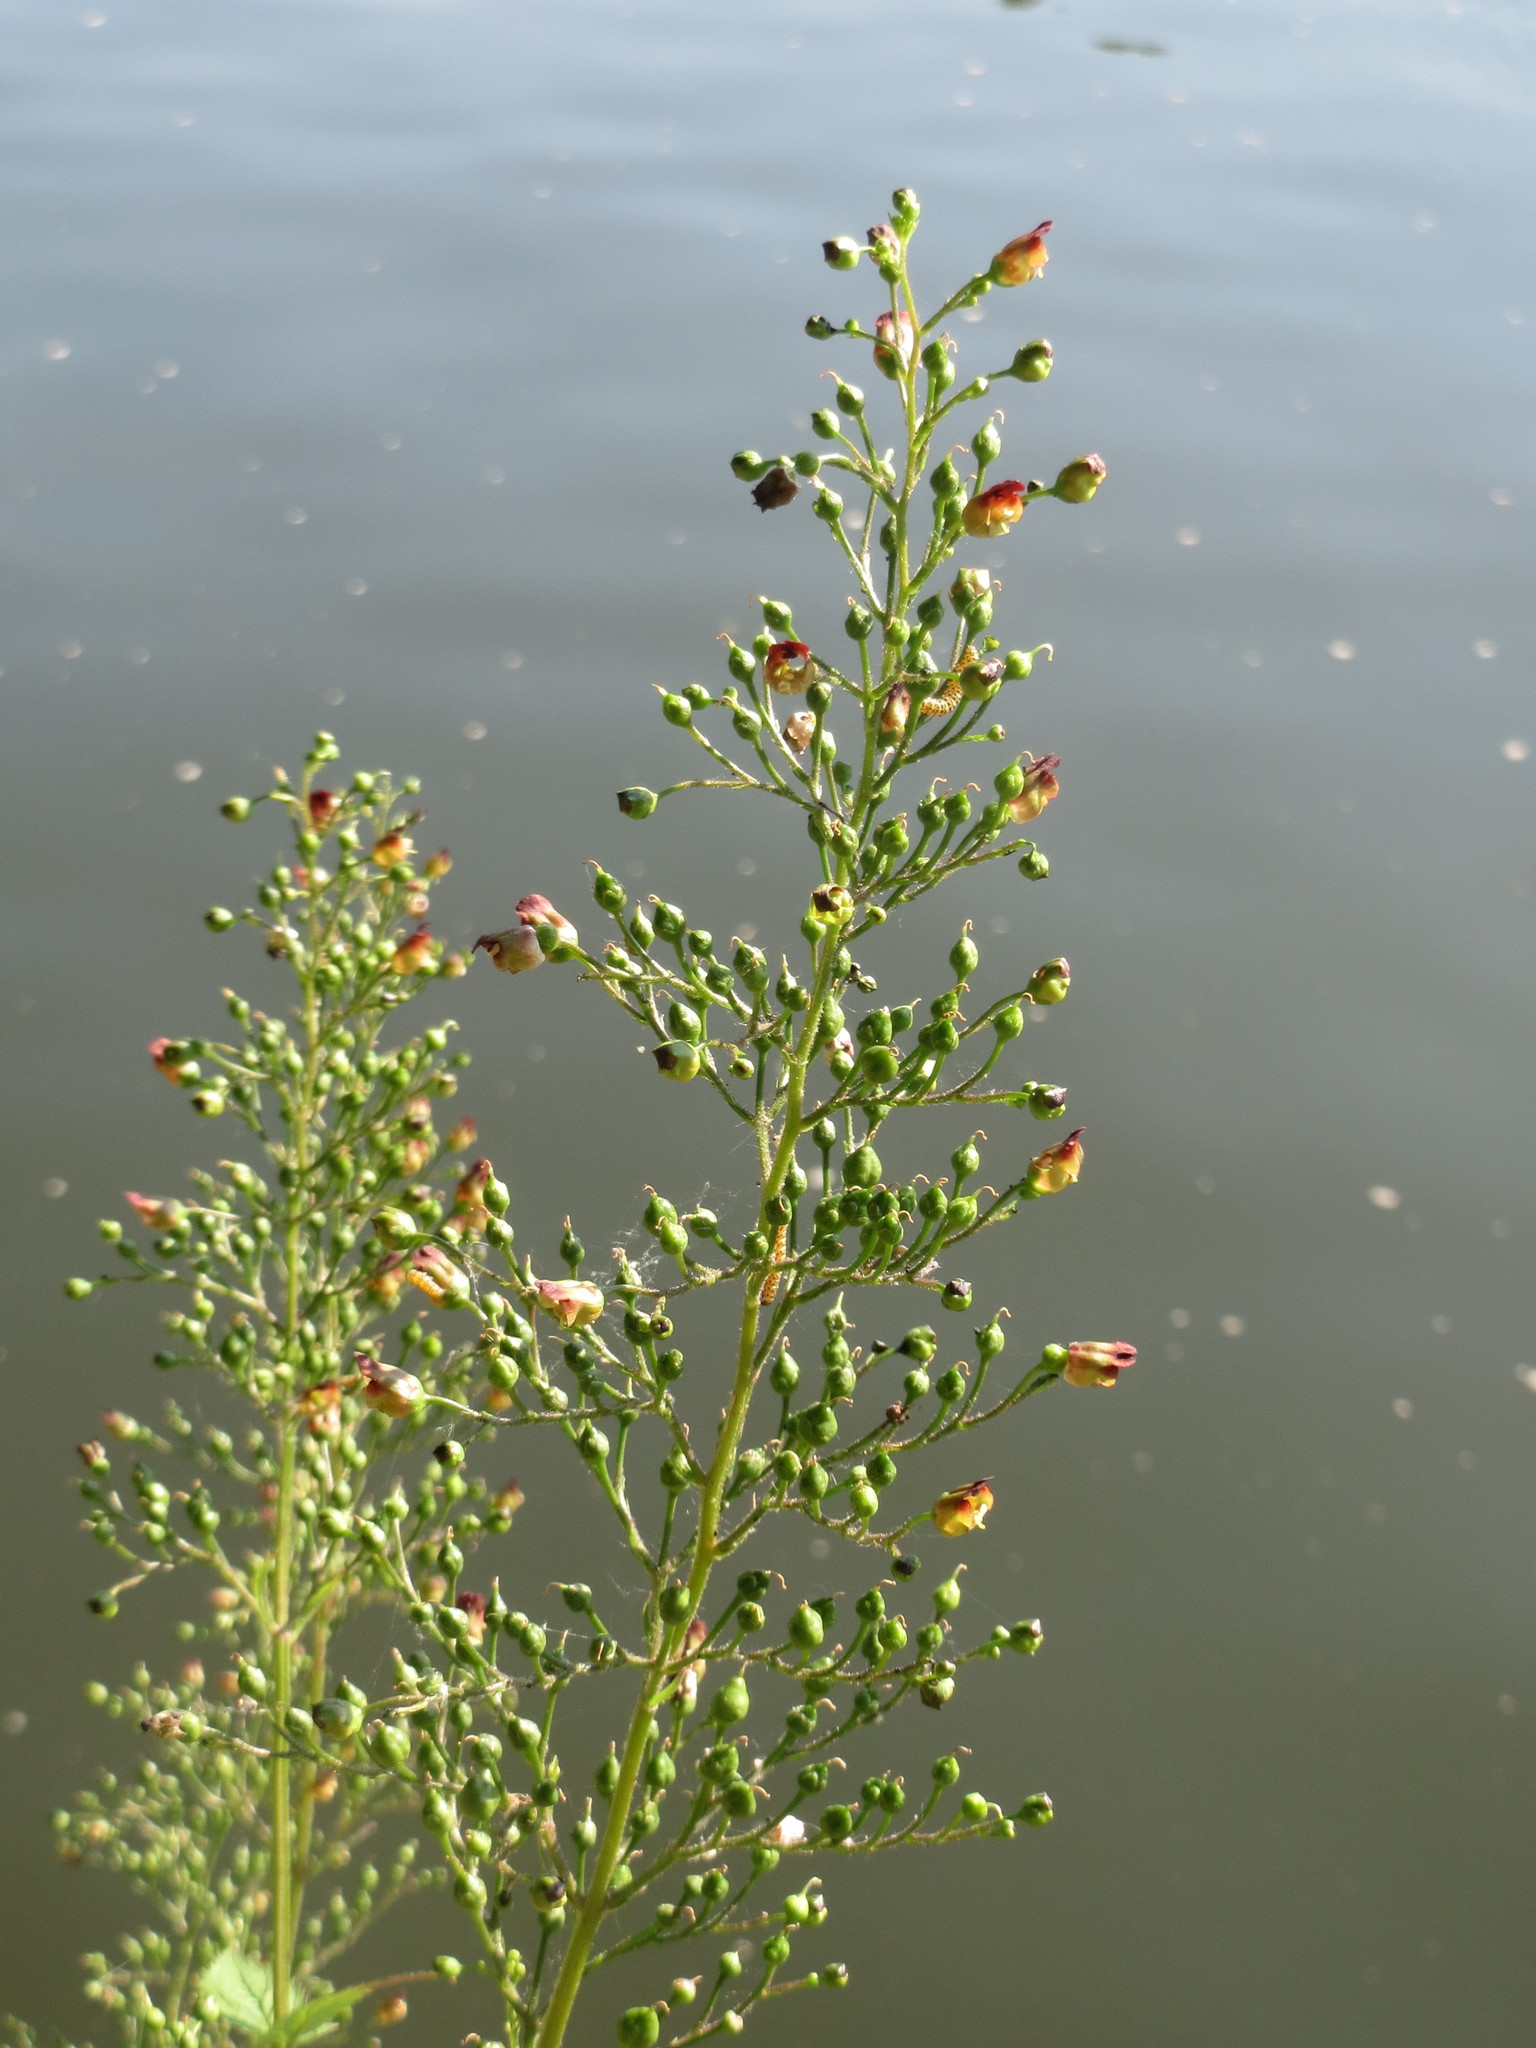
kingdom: Plantae
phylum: Tracheophyta
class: Magnoliopsida
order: Lamiales
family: Scrophulariaceae
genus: Scrophularia
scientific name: Scrophularia nodosa
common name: Common figwort
